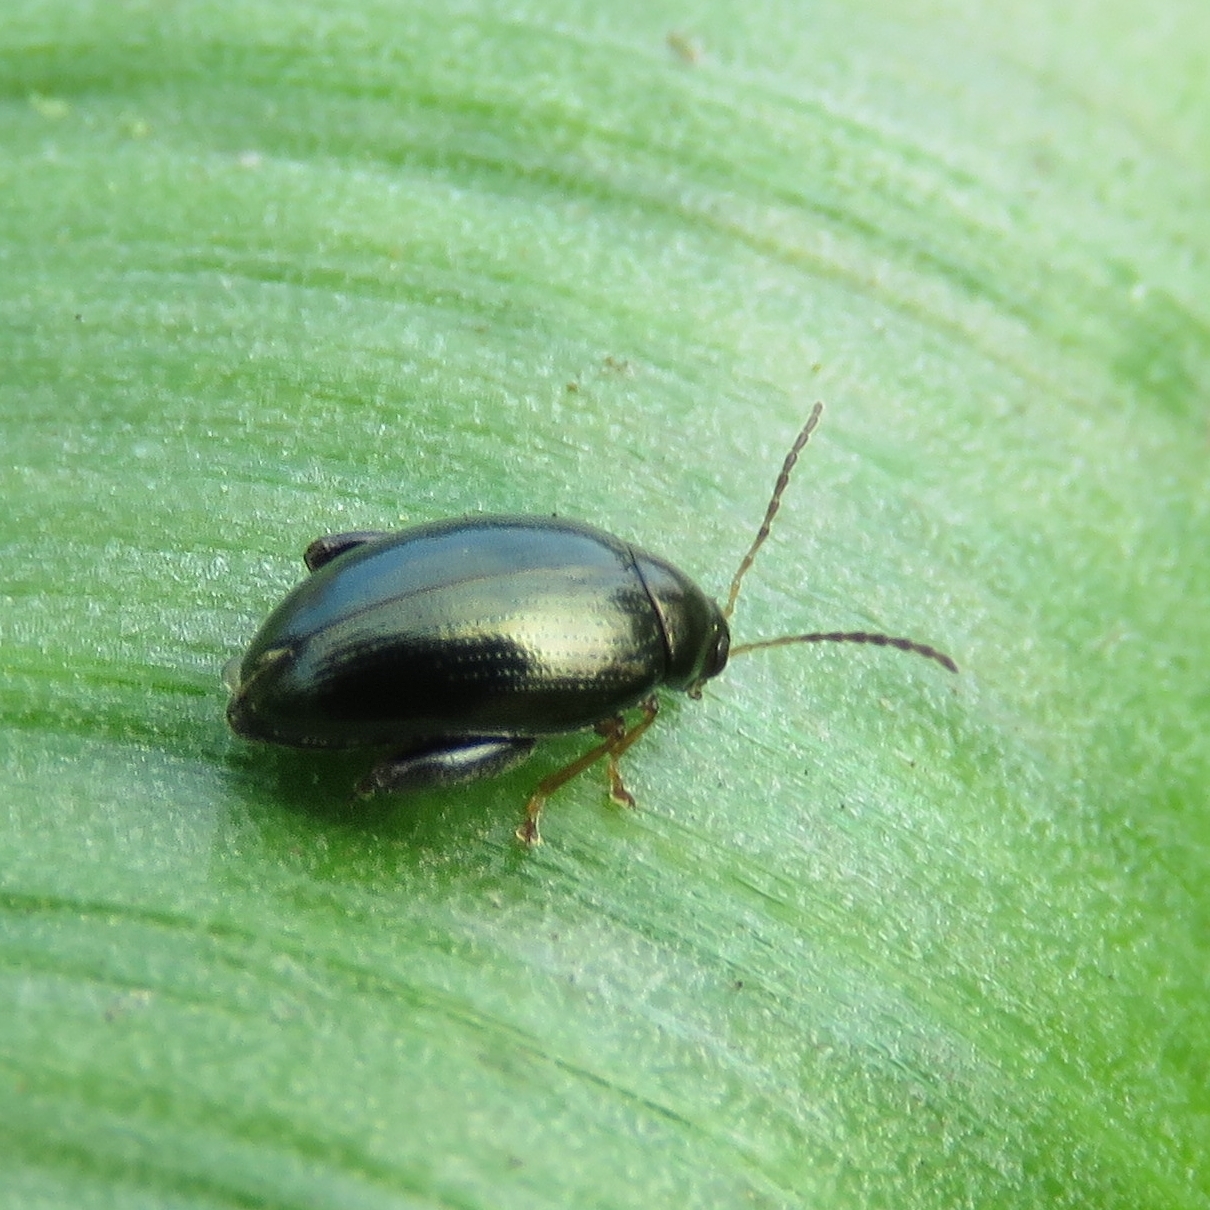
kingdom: Animalia
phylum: Arthropoda
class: Insecta
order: Coleoptera
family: Chrysomelidae
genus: Psylliodes
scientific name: Psylliodes chrysocephalus
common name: Cabbage-stem flea beetle
